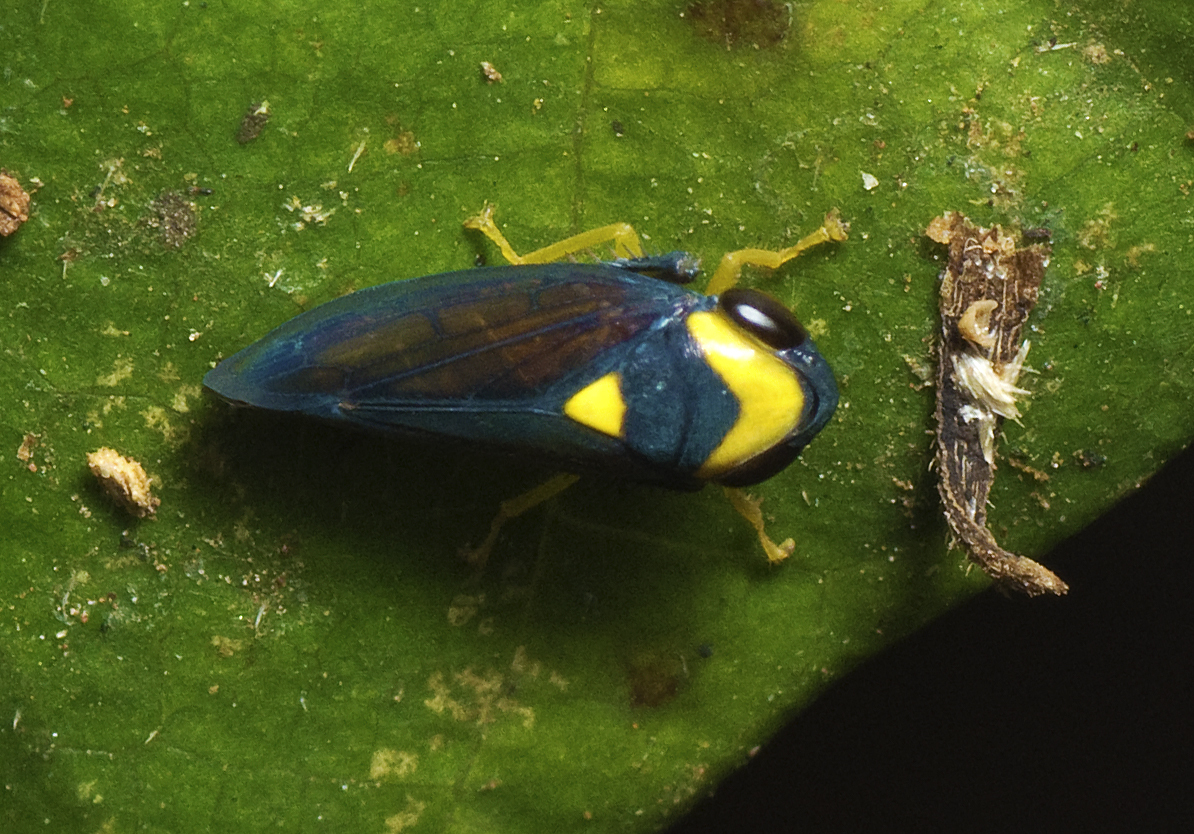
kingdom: Animalia
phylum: Arthropoda
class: Insecta
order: Hemiptera
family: Cicadellidae
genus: Microtartessus
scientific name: Microtartessus kurandae
